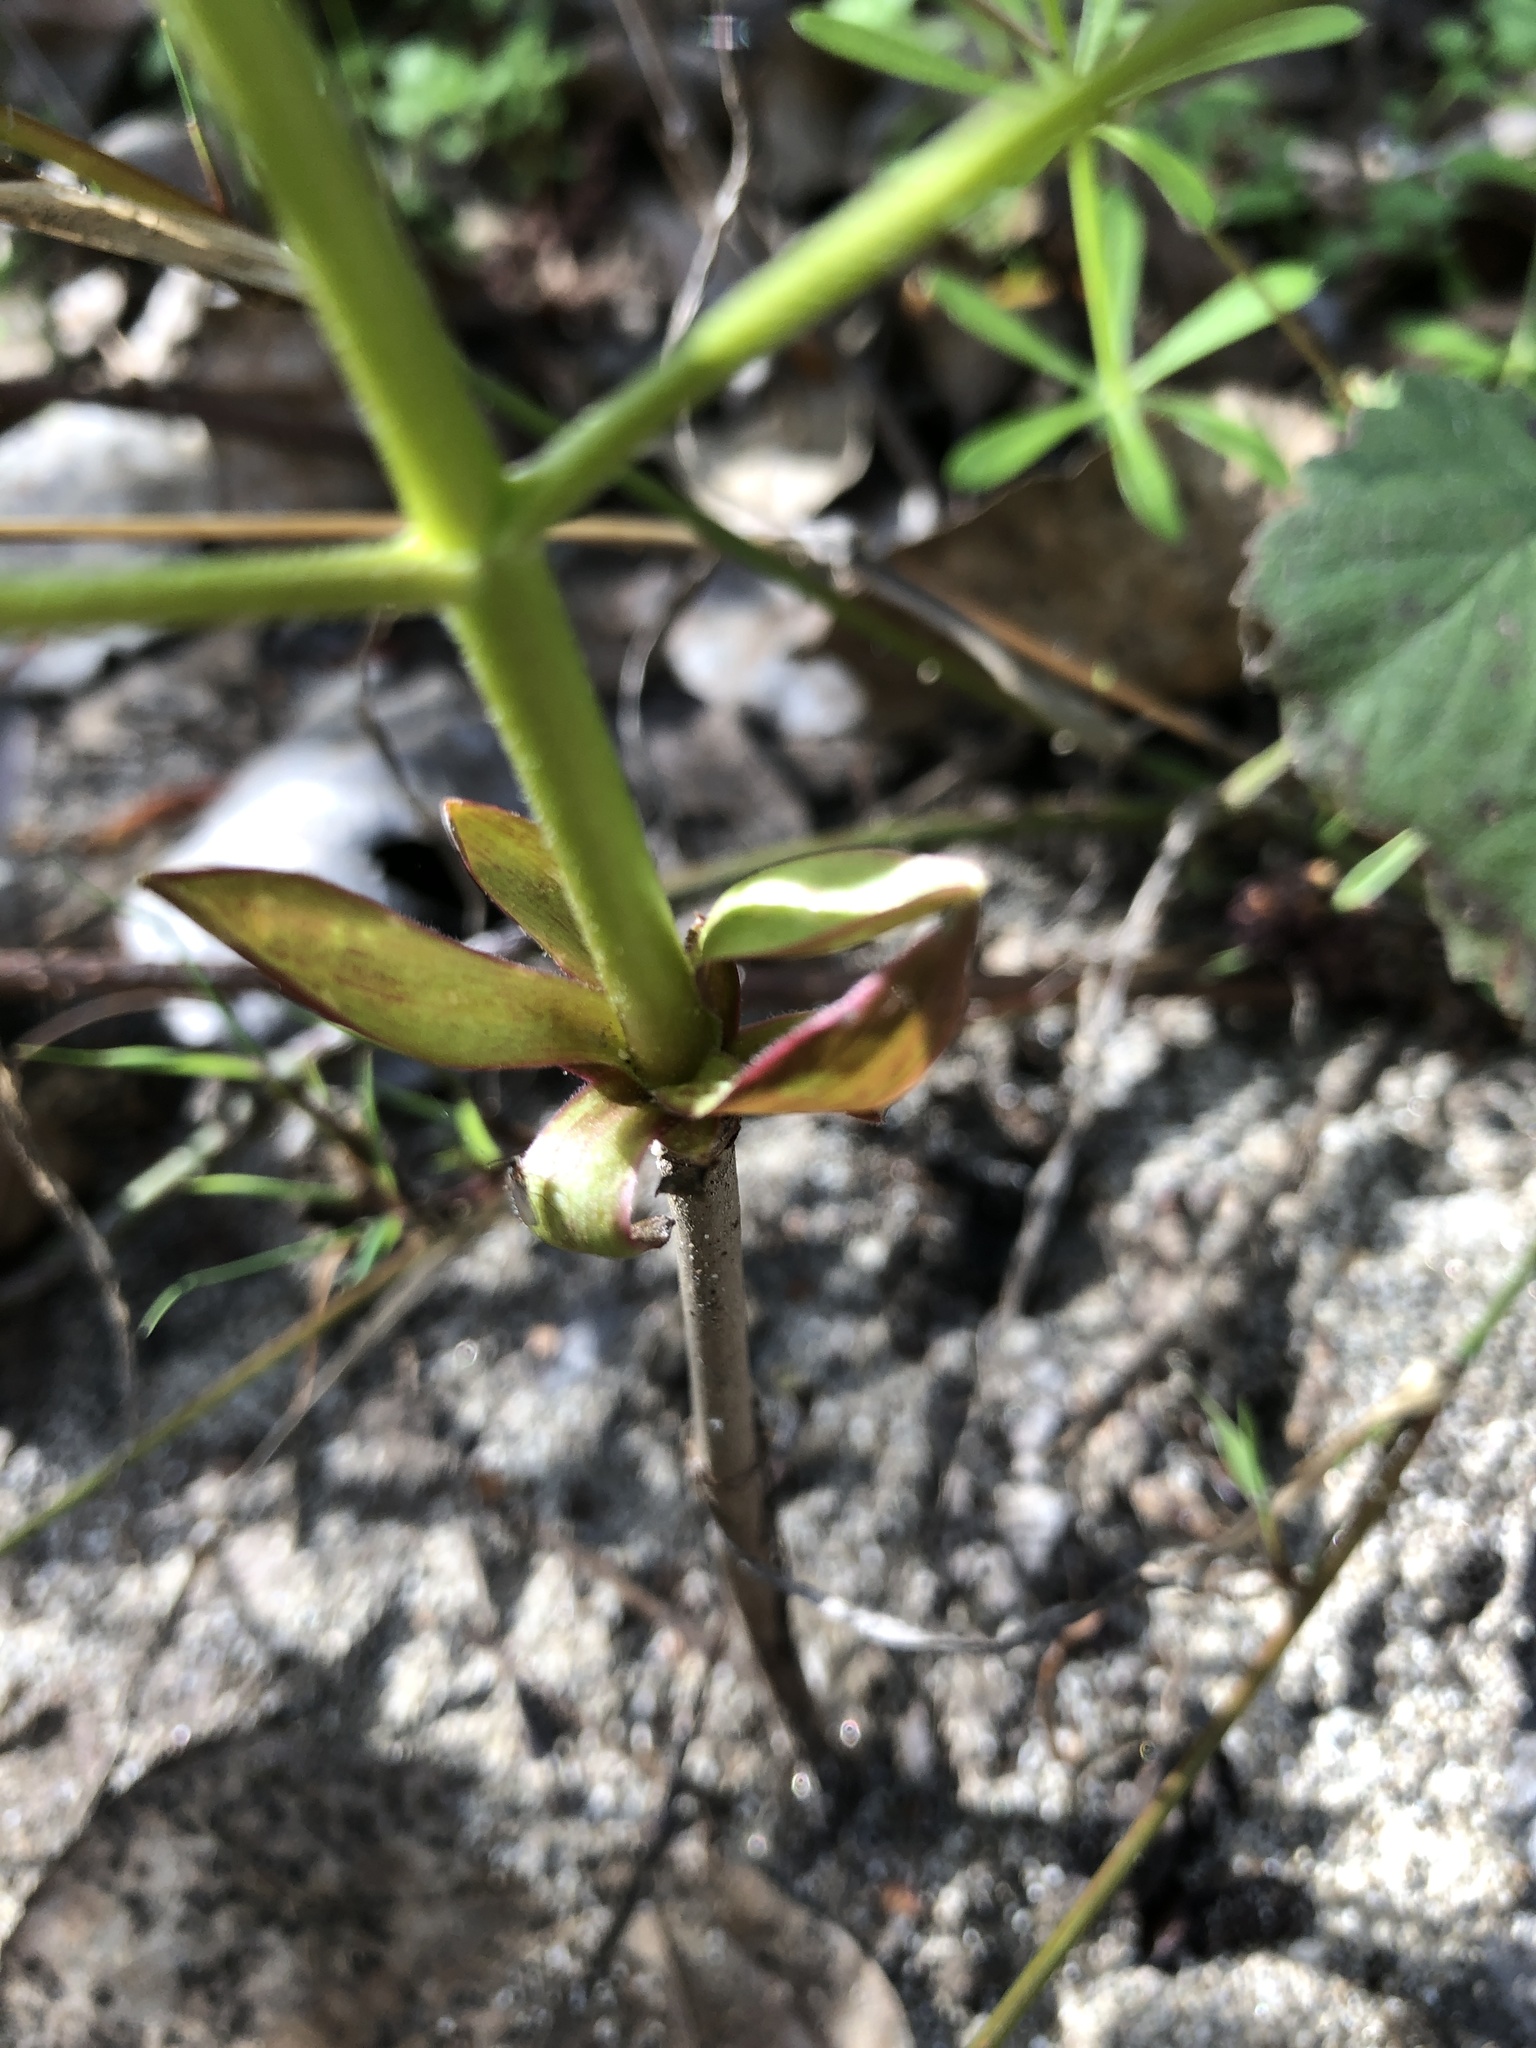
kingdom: Plantae
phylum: Tracheophyta
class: Magnoliopsida
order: Sapindales
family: Sapindaceae
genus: Aesculus
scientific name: Aesculus californica
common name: California buckeye
